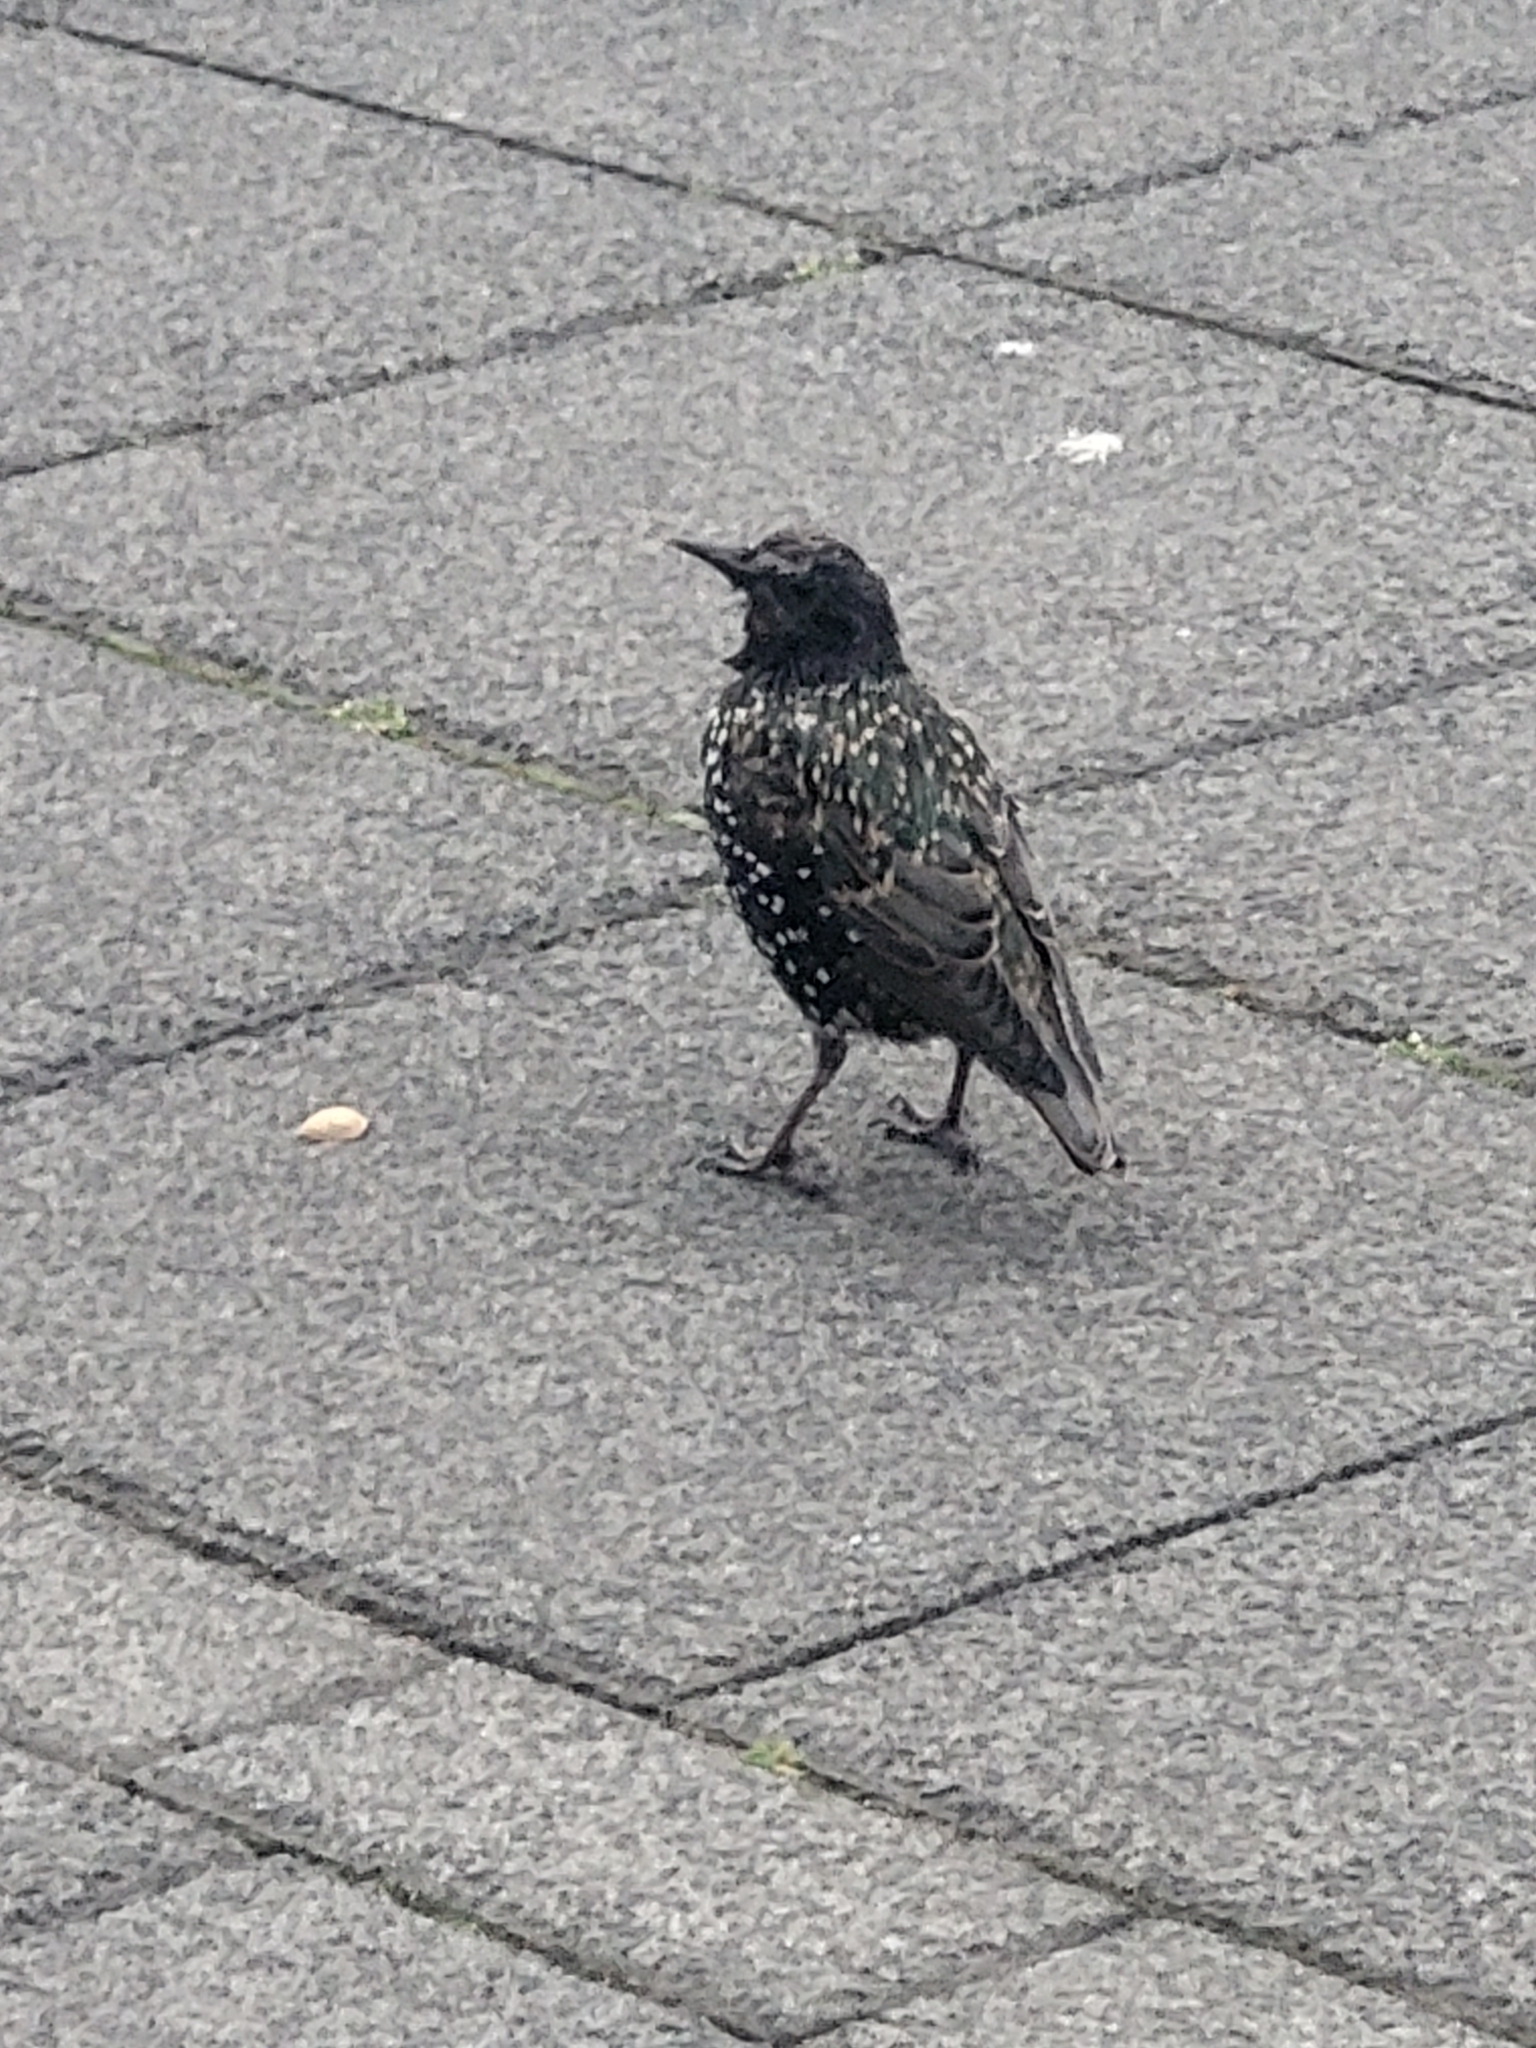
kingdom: Animalia
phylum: Chordata
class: Aves
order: Passeriformes
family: Sturnidae
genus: Sturnus
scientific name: Sturnus vulgaris
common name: Common starling
